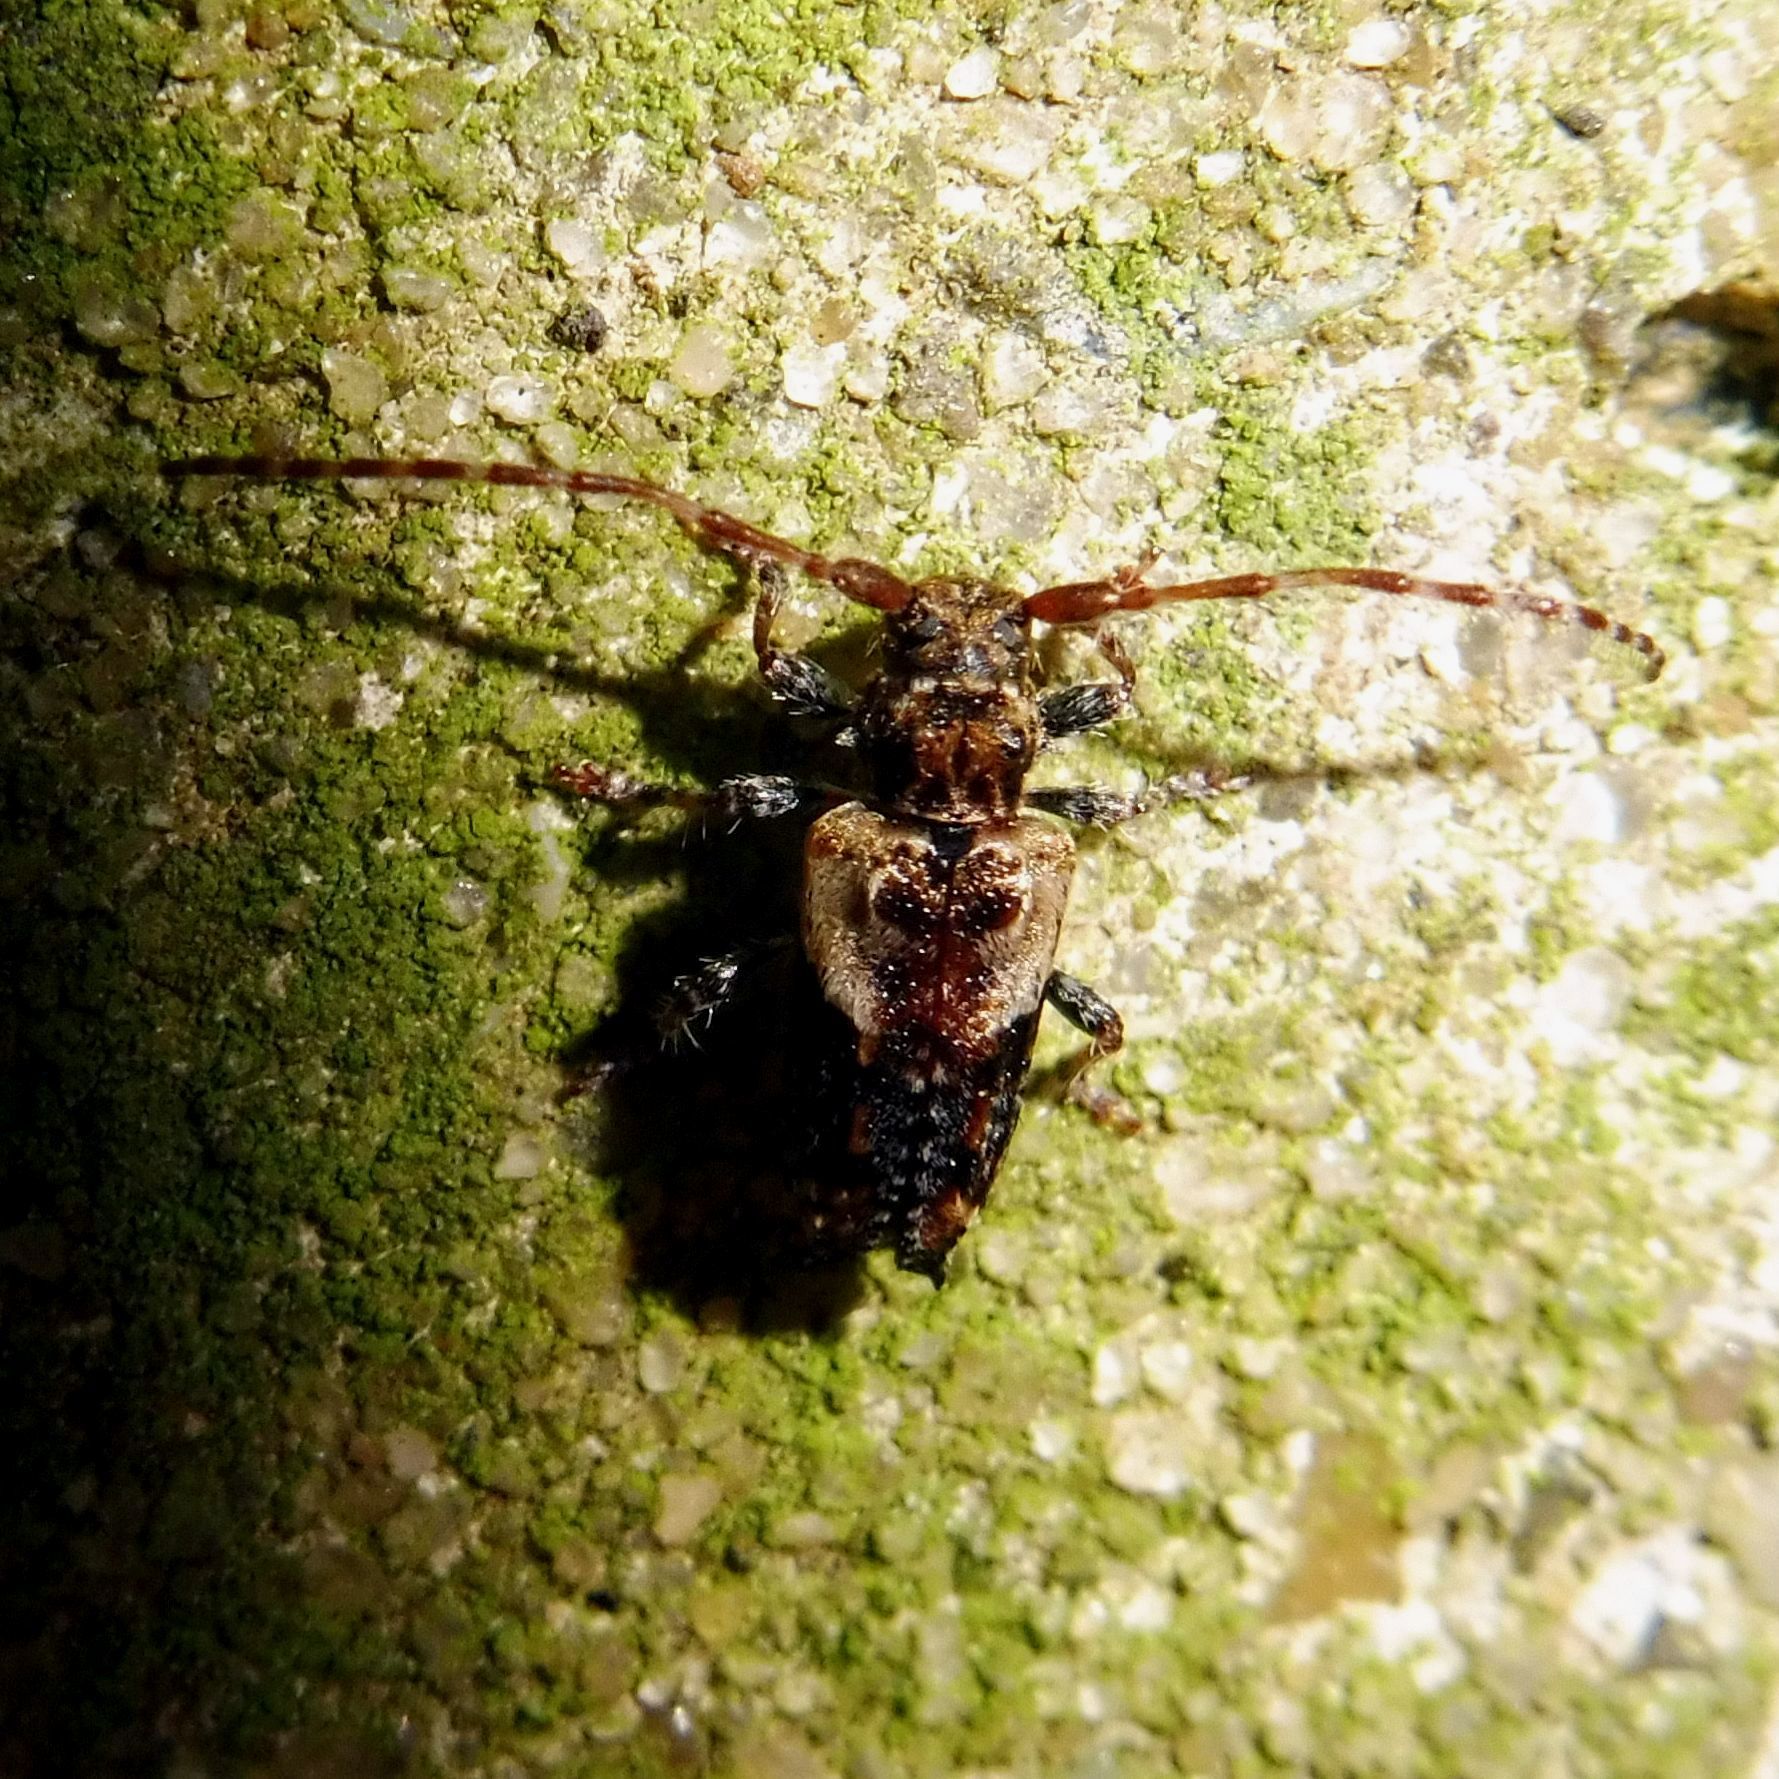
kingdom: Animalia
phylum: Arthropoda
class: Insecta
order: Coleoptera
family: Cerambycidae
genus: Pogonocherus
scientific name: Pogonocherus hispidus
